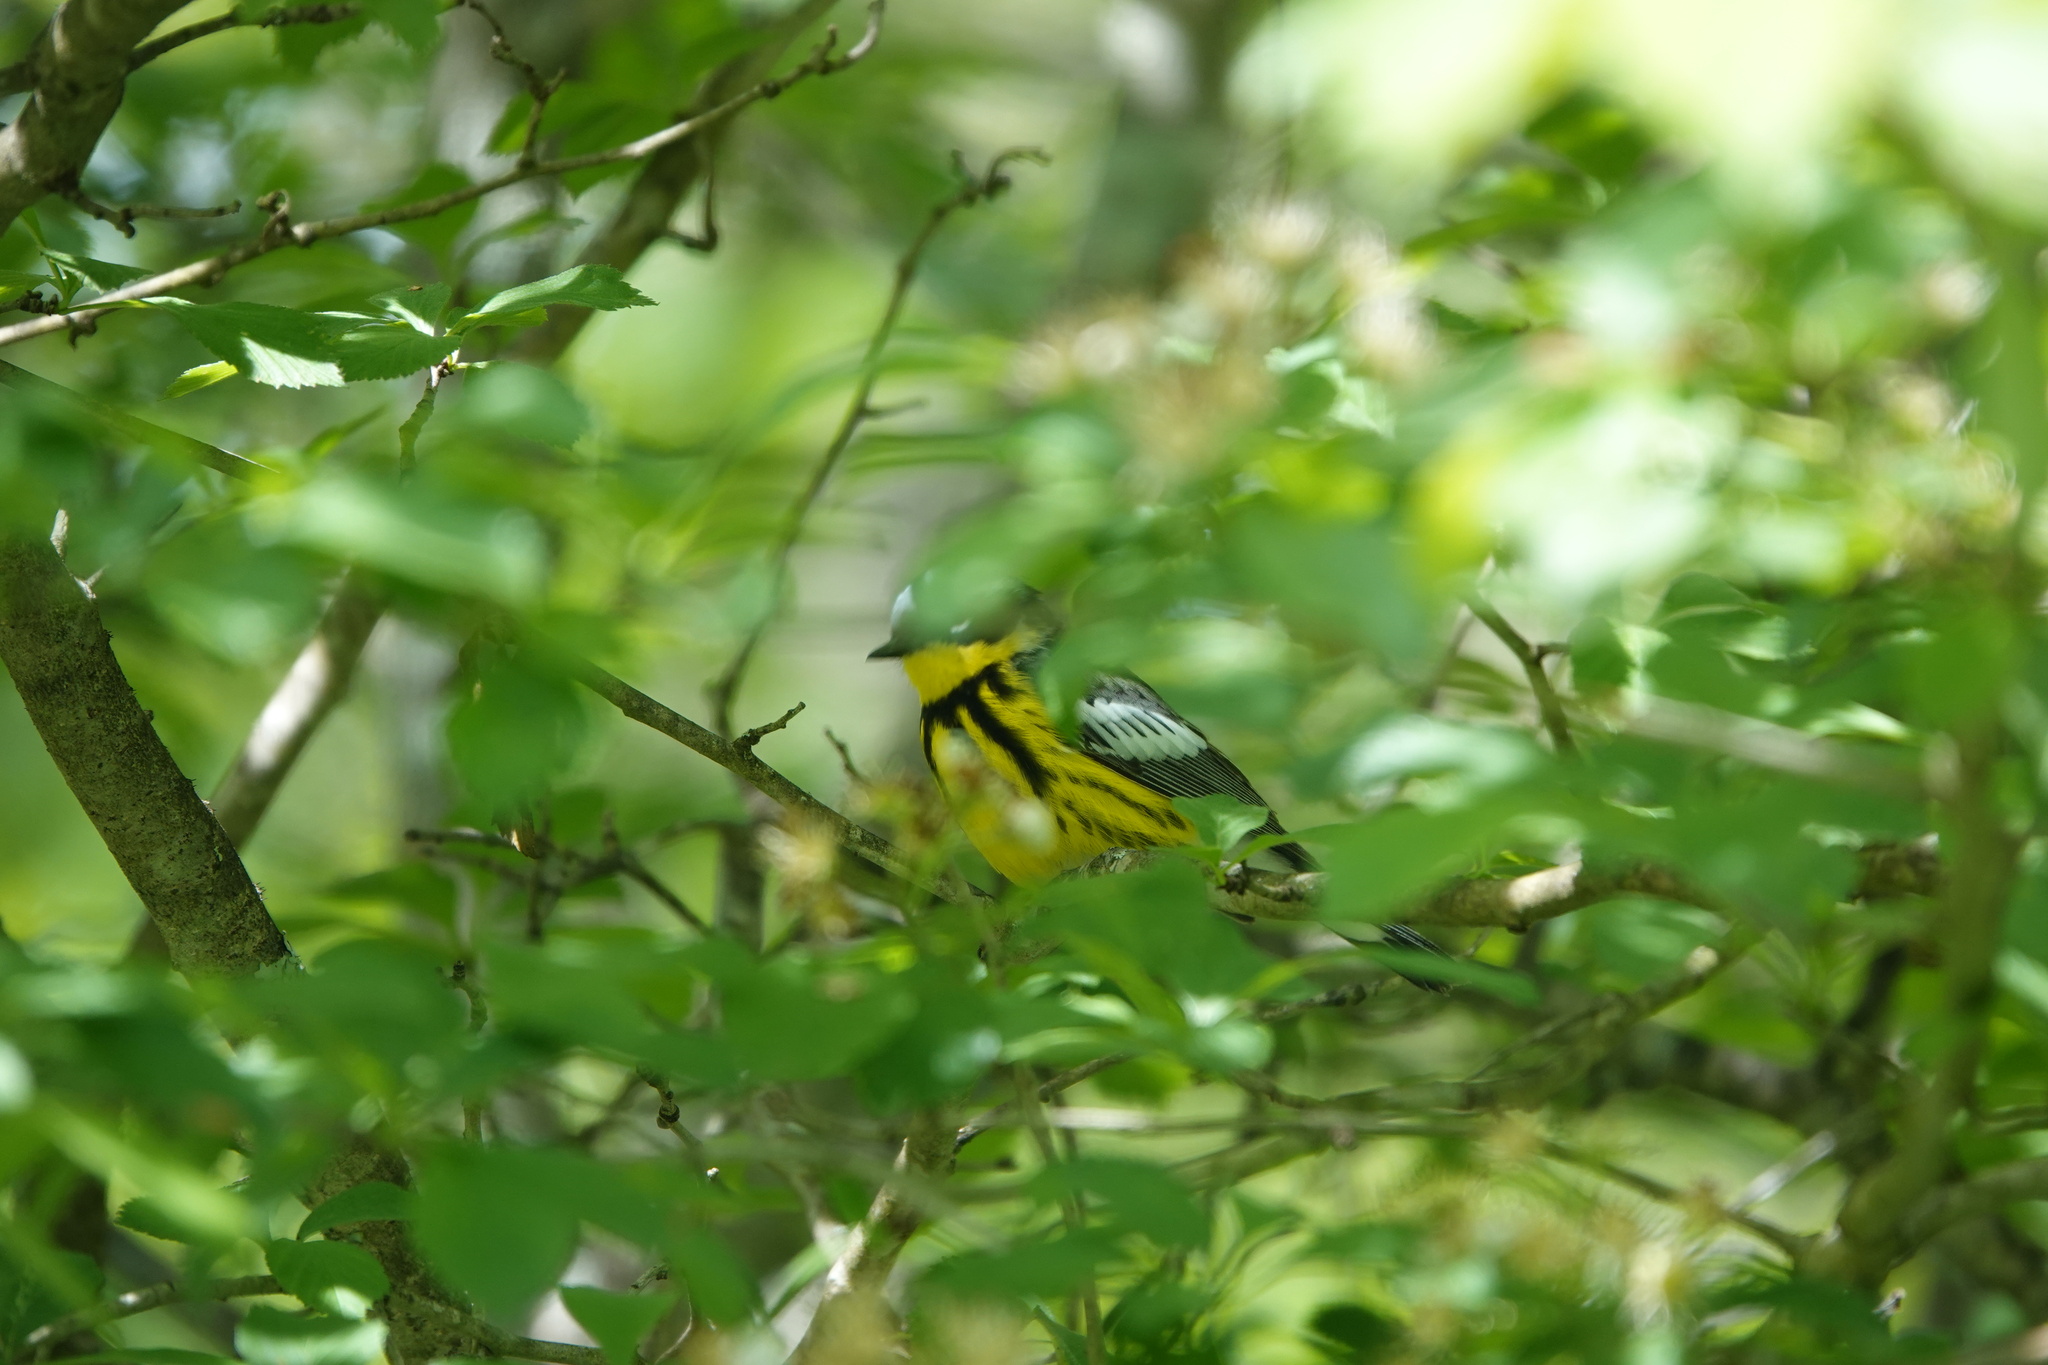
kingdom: Animalia
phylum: Chordata
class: Aves
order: Passeriformes
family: Parulidae
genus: Setophaga
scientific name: Setophaga magnolia
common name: Magnolia warbler
